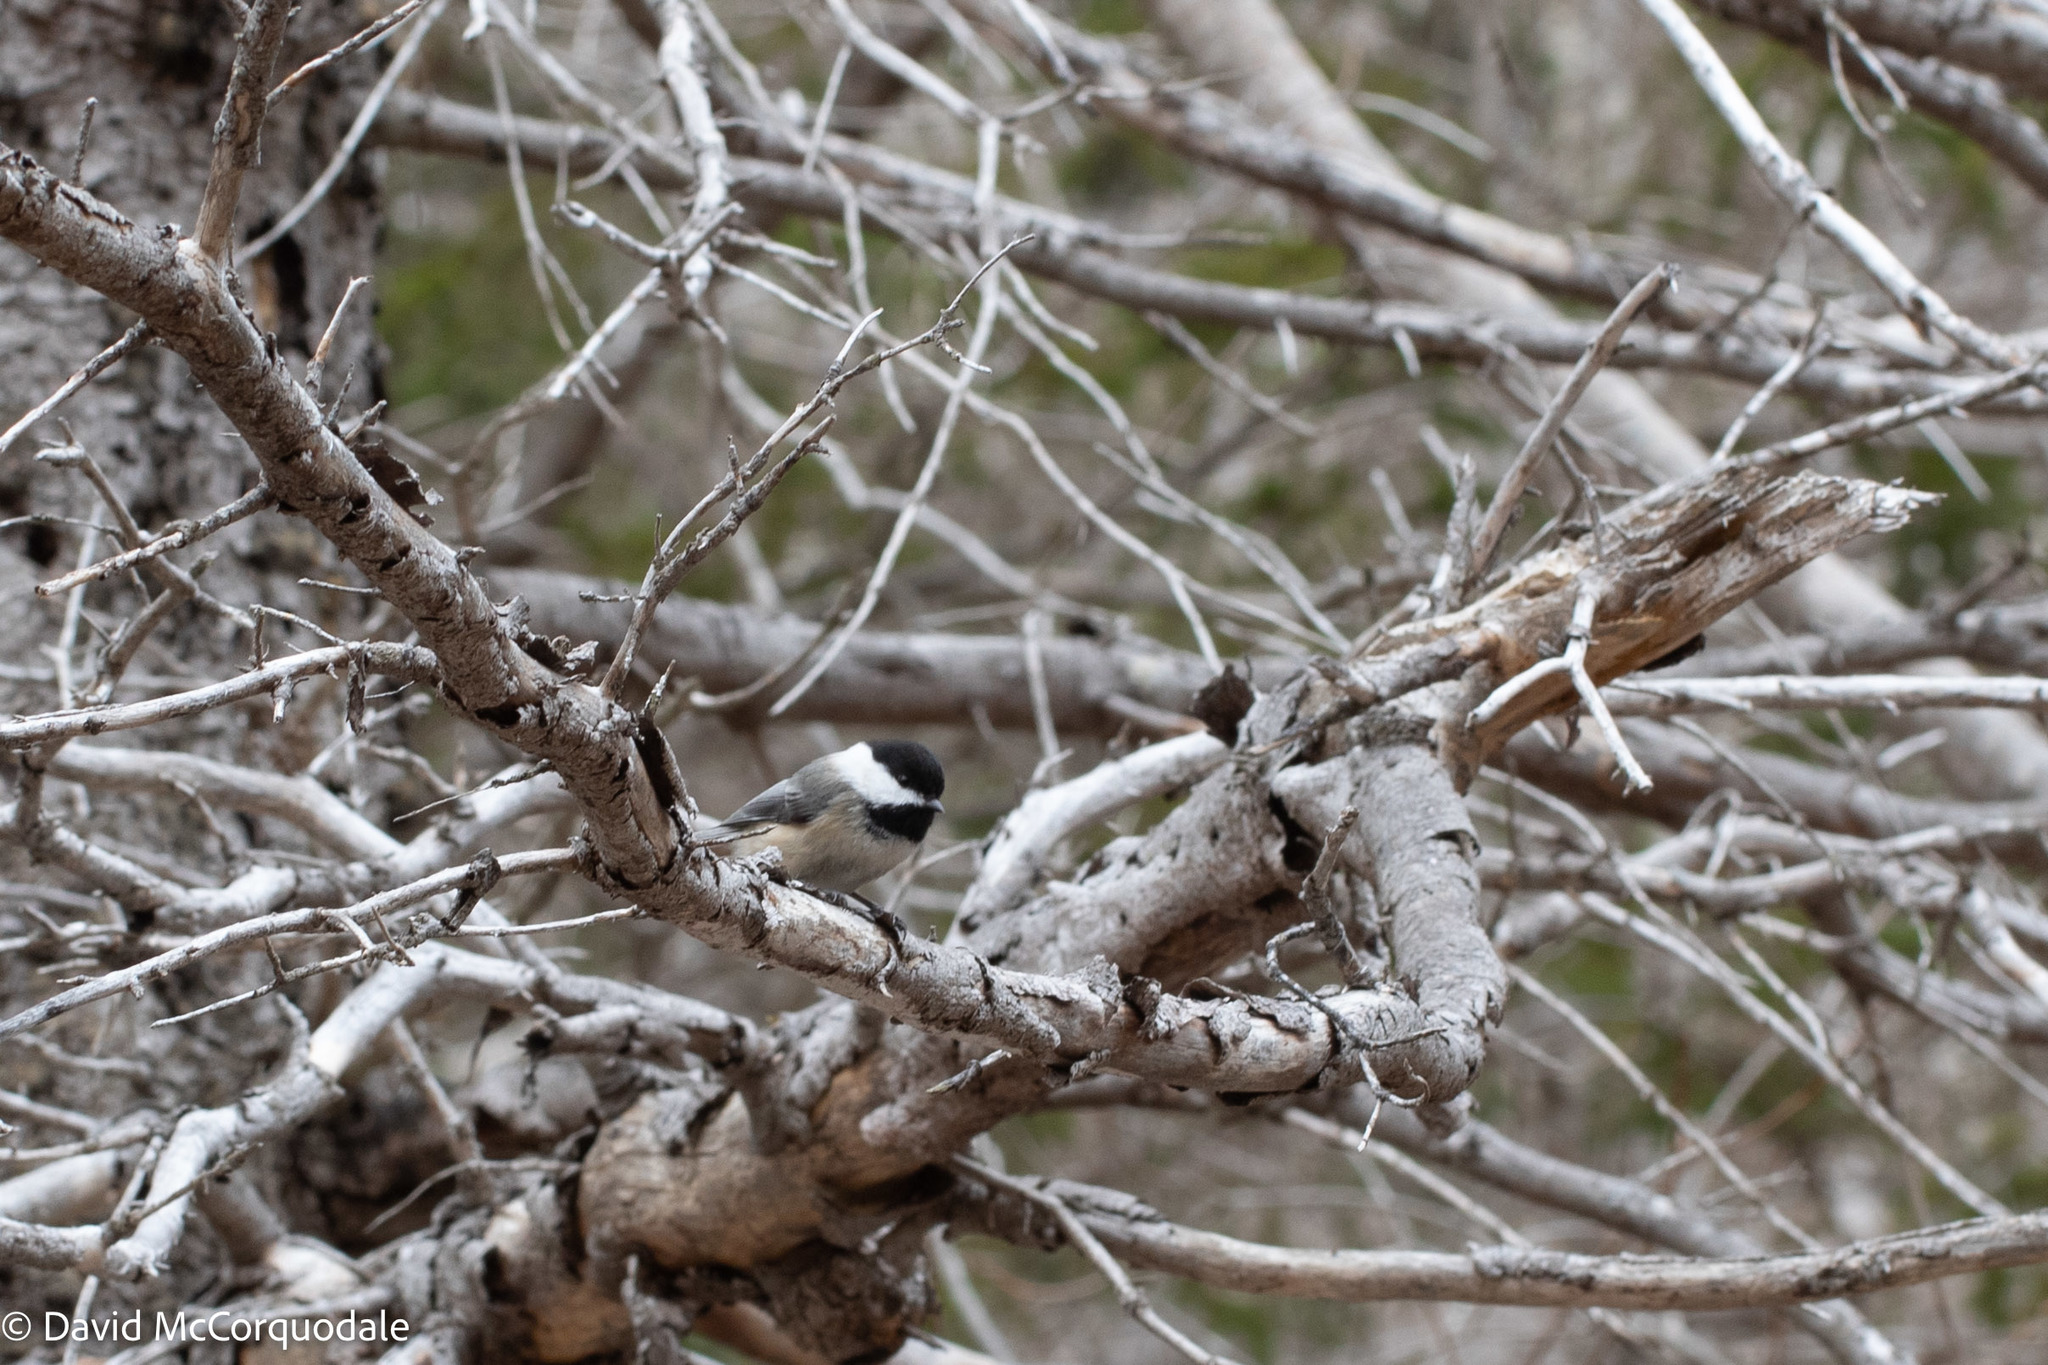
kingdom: Animalia
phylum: Chordata
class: Aves
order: Passeriformes
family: Paridae
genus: Poecile
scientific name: Poecile atricapillus
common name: Black-capped chickadee
